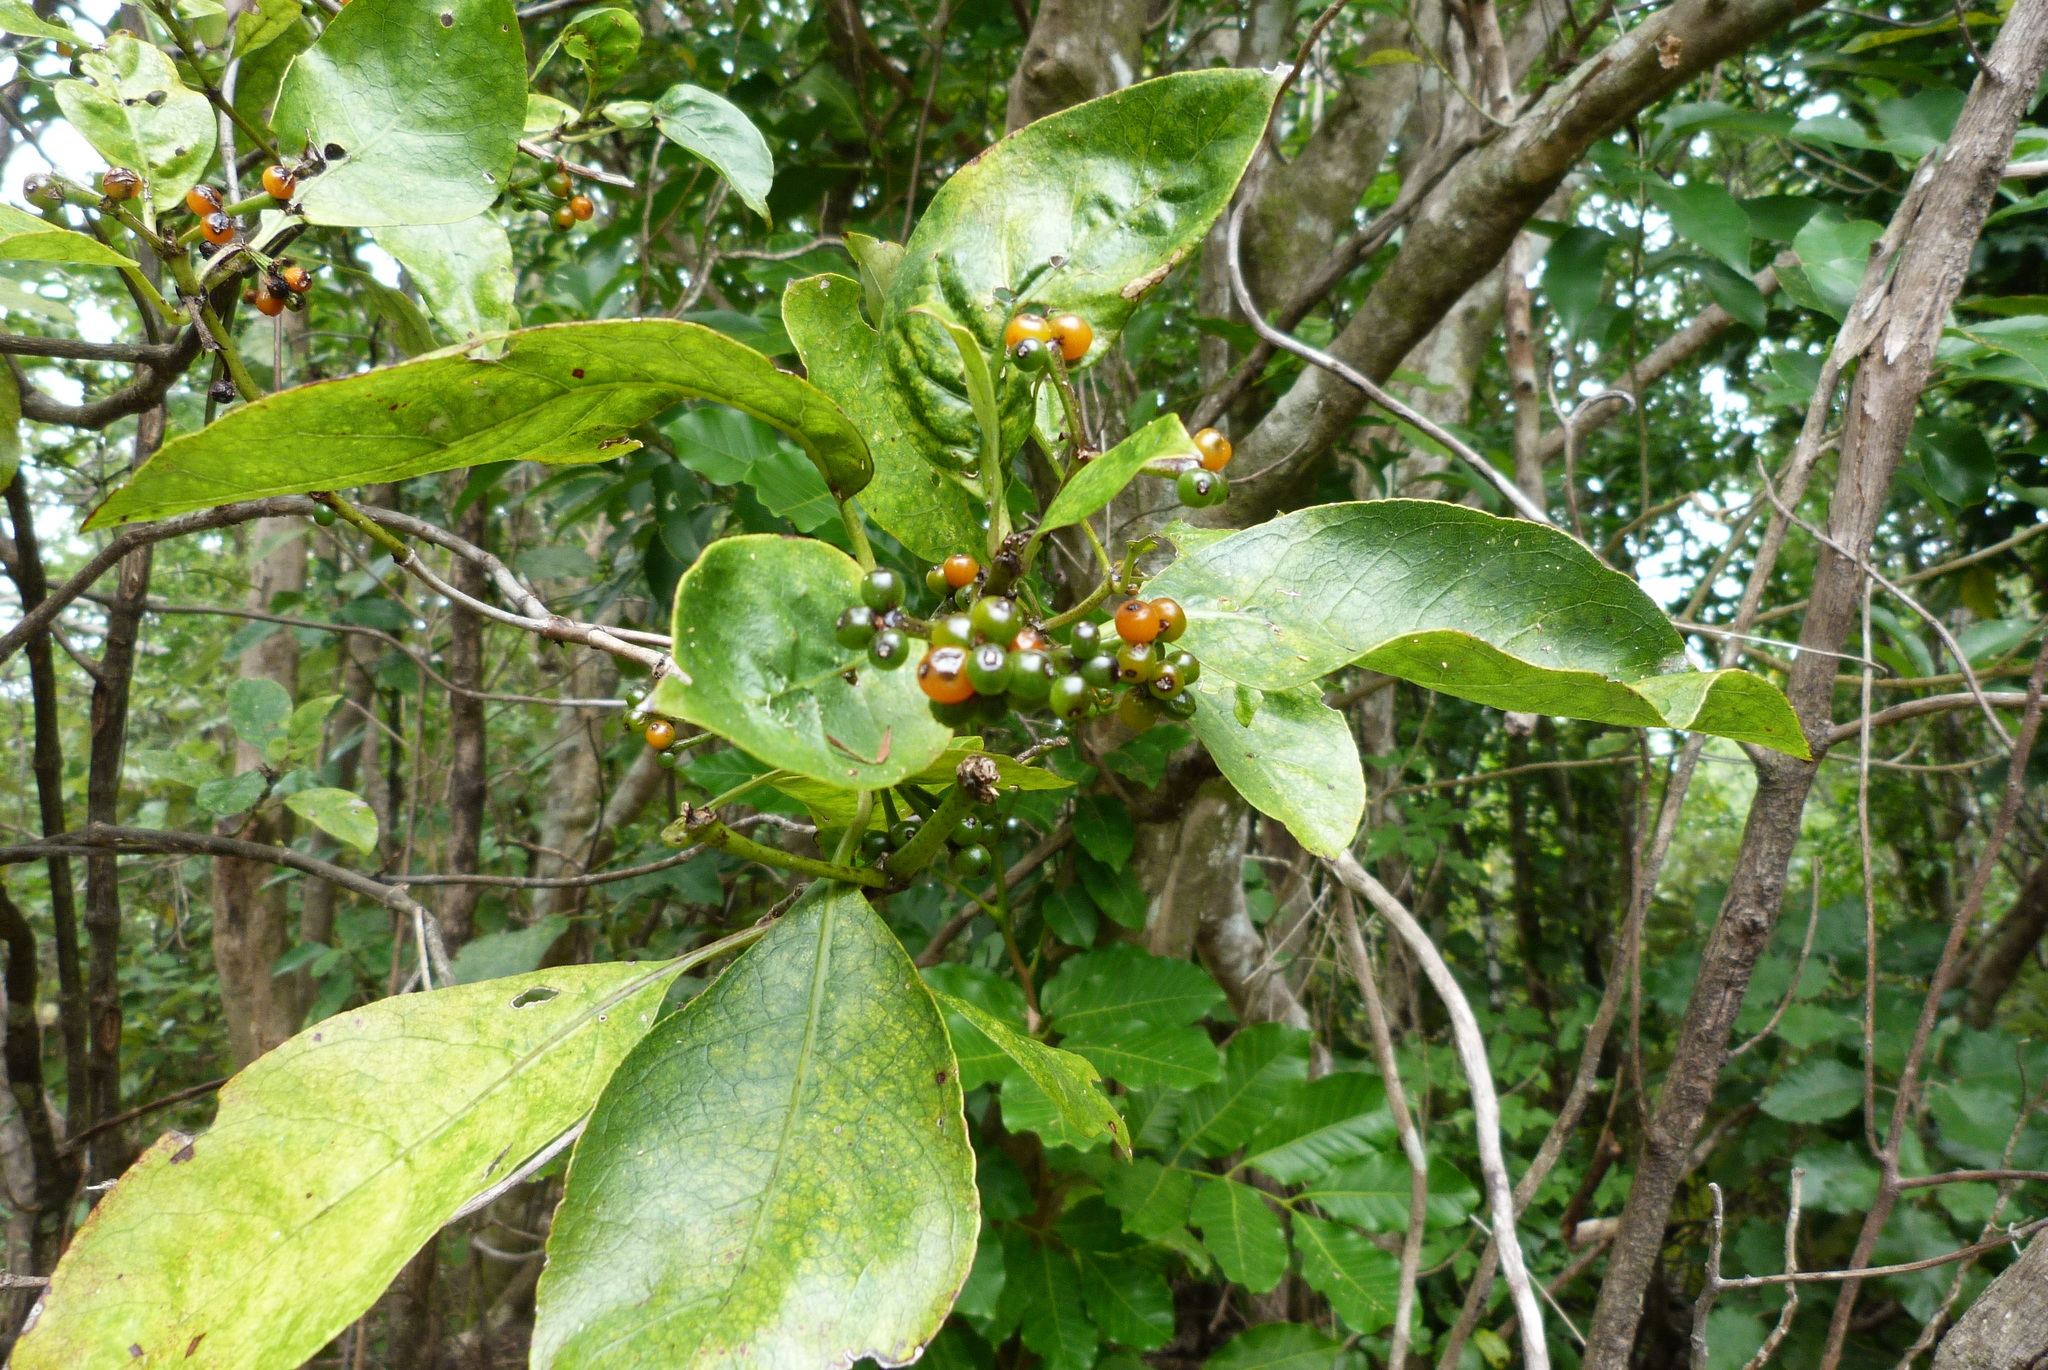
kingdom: Plantae
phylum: Tracheophyta
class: Magnoliopsida
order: Gentianales
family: Rubiaceae
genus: Coprosma
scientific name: Coprosma autumnalis
